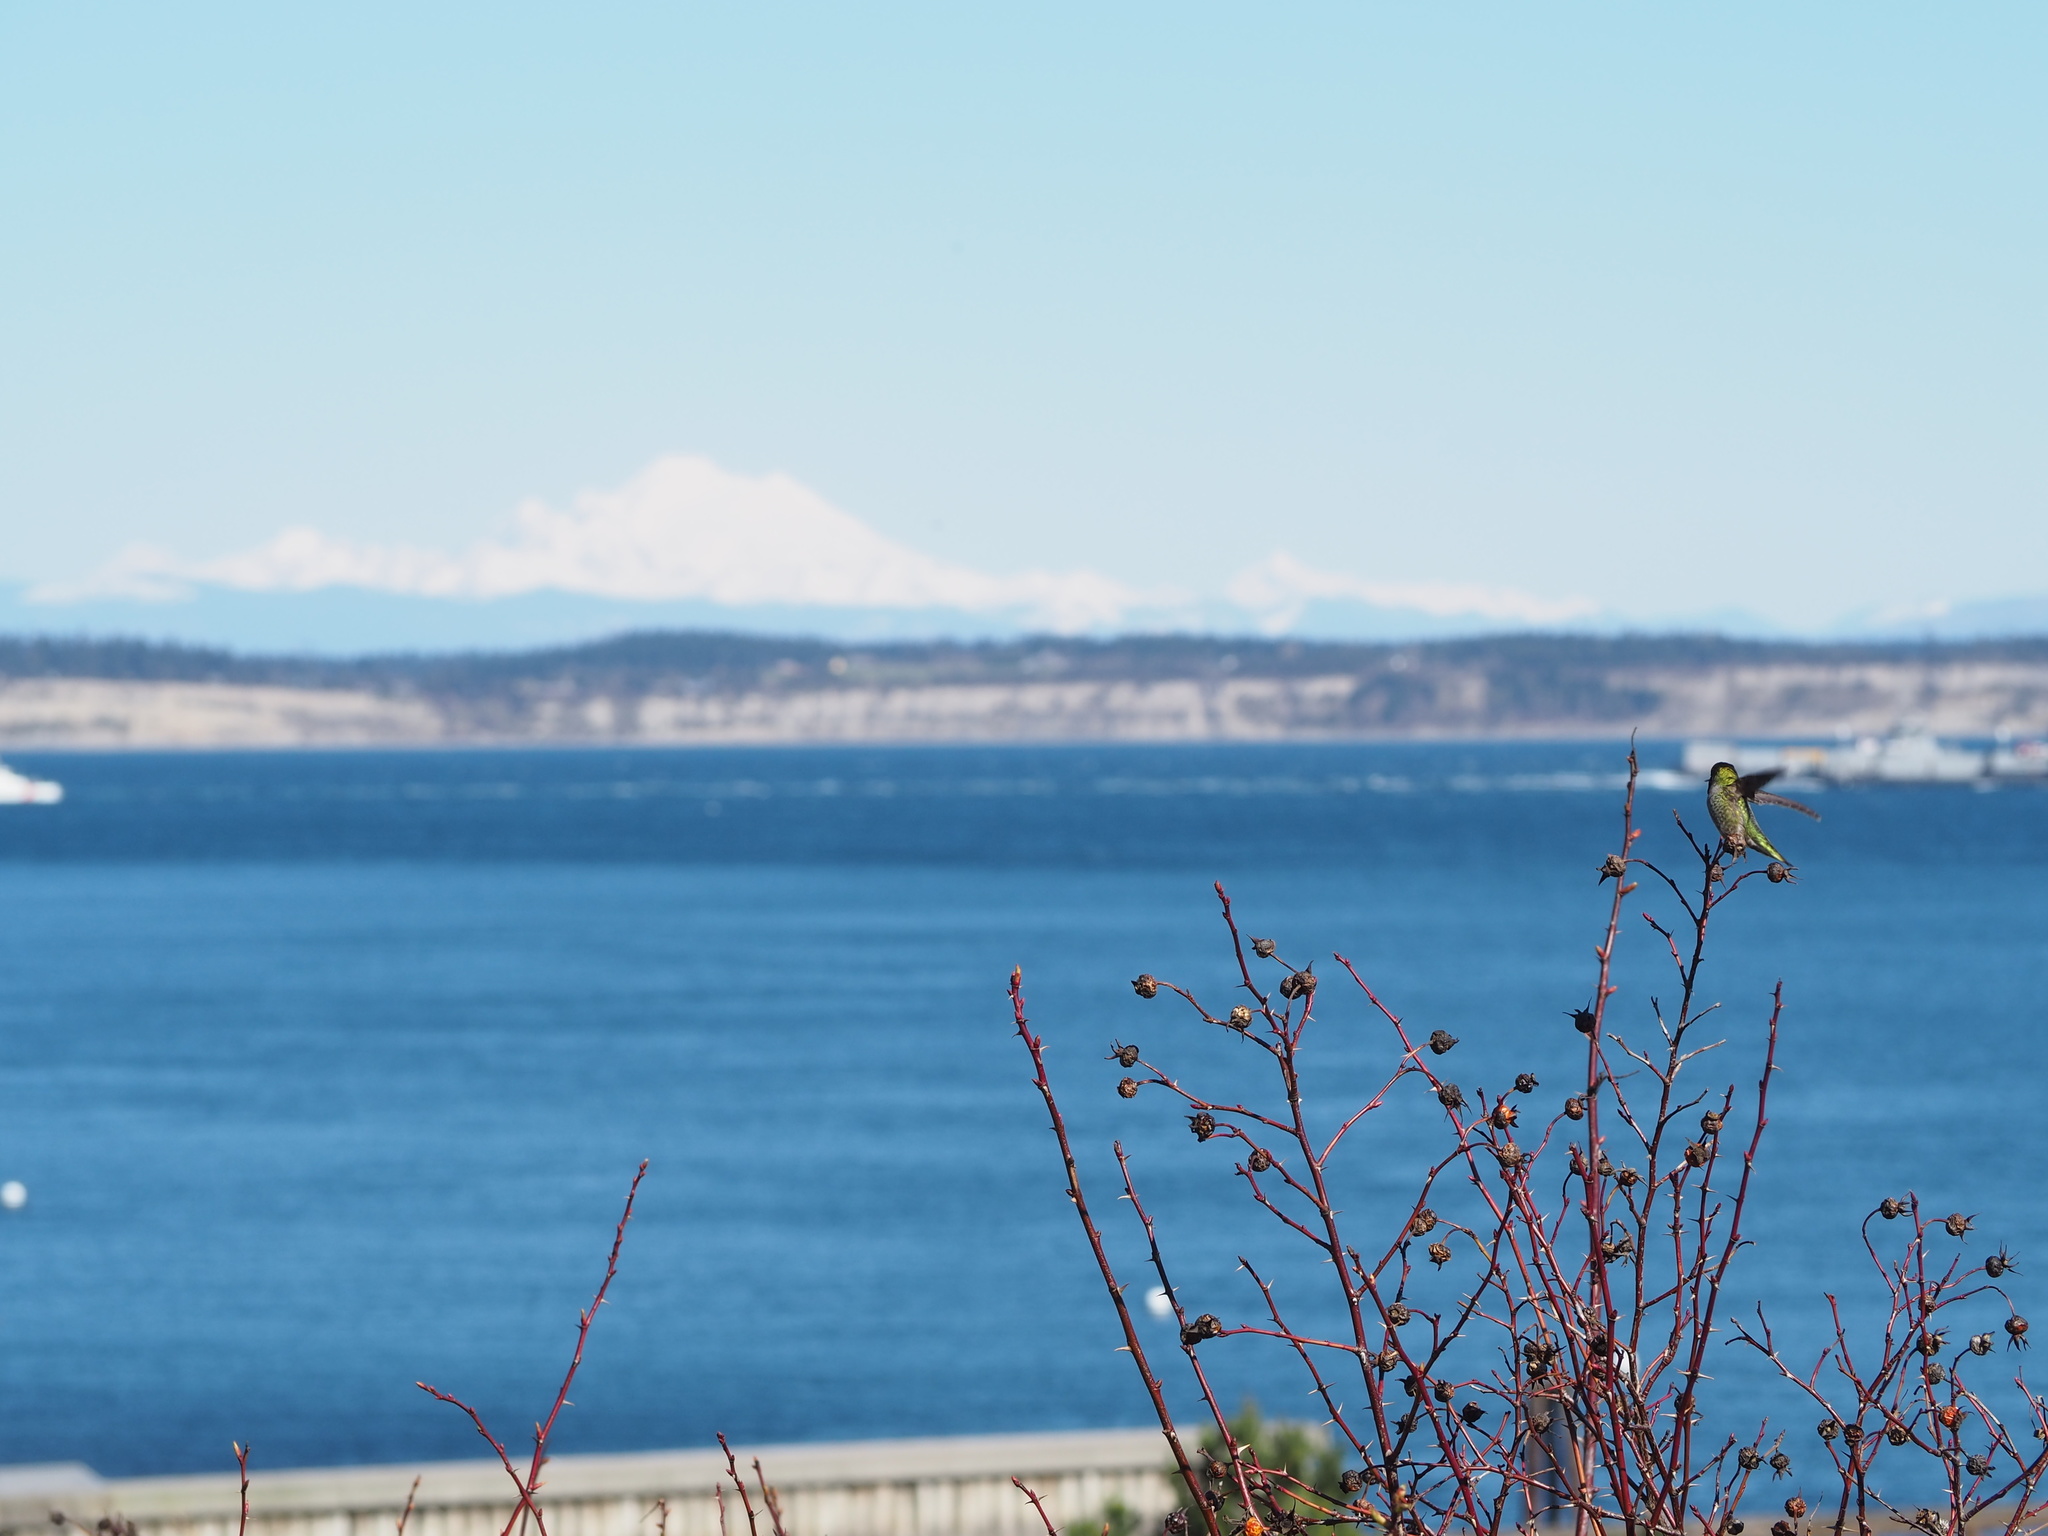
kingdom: Animalia
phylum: Chordata
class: Aves
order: Apodiformes
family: Trochilidae
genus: Calypte
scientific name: Calypte anna
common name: Anna's hummingbird
